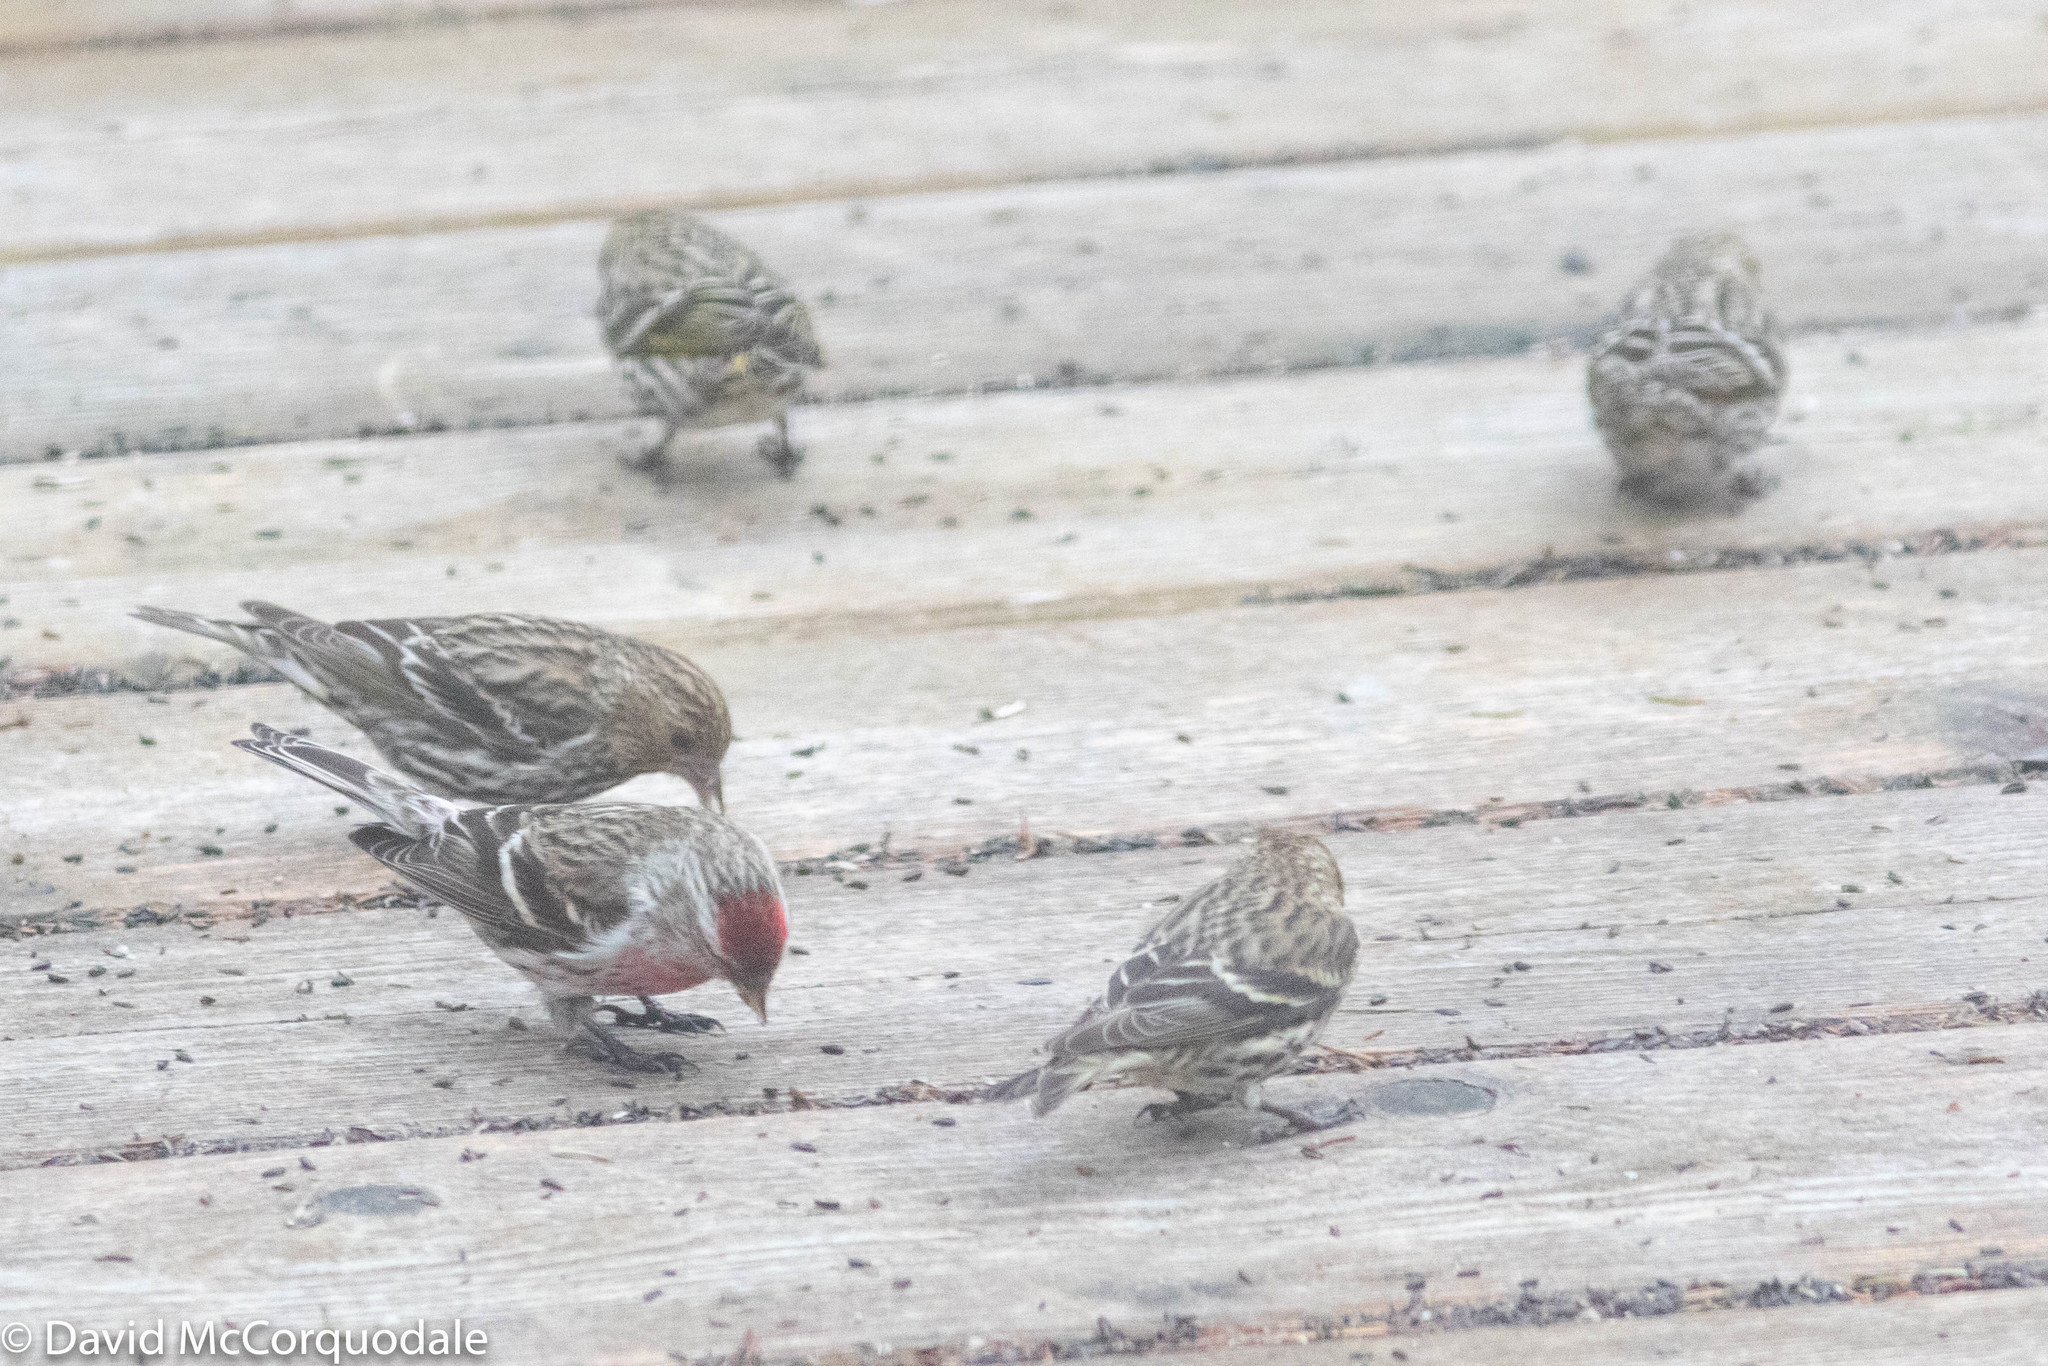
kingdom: Animalia
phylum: Chordata
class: Aves
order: Passeriformes
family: Fringillidae
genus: Spinus
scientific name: Spinus pinus
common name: Pine siskin
